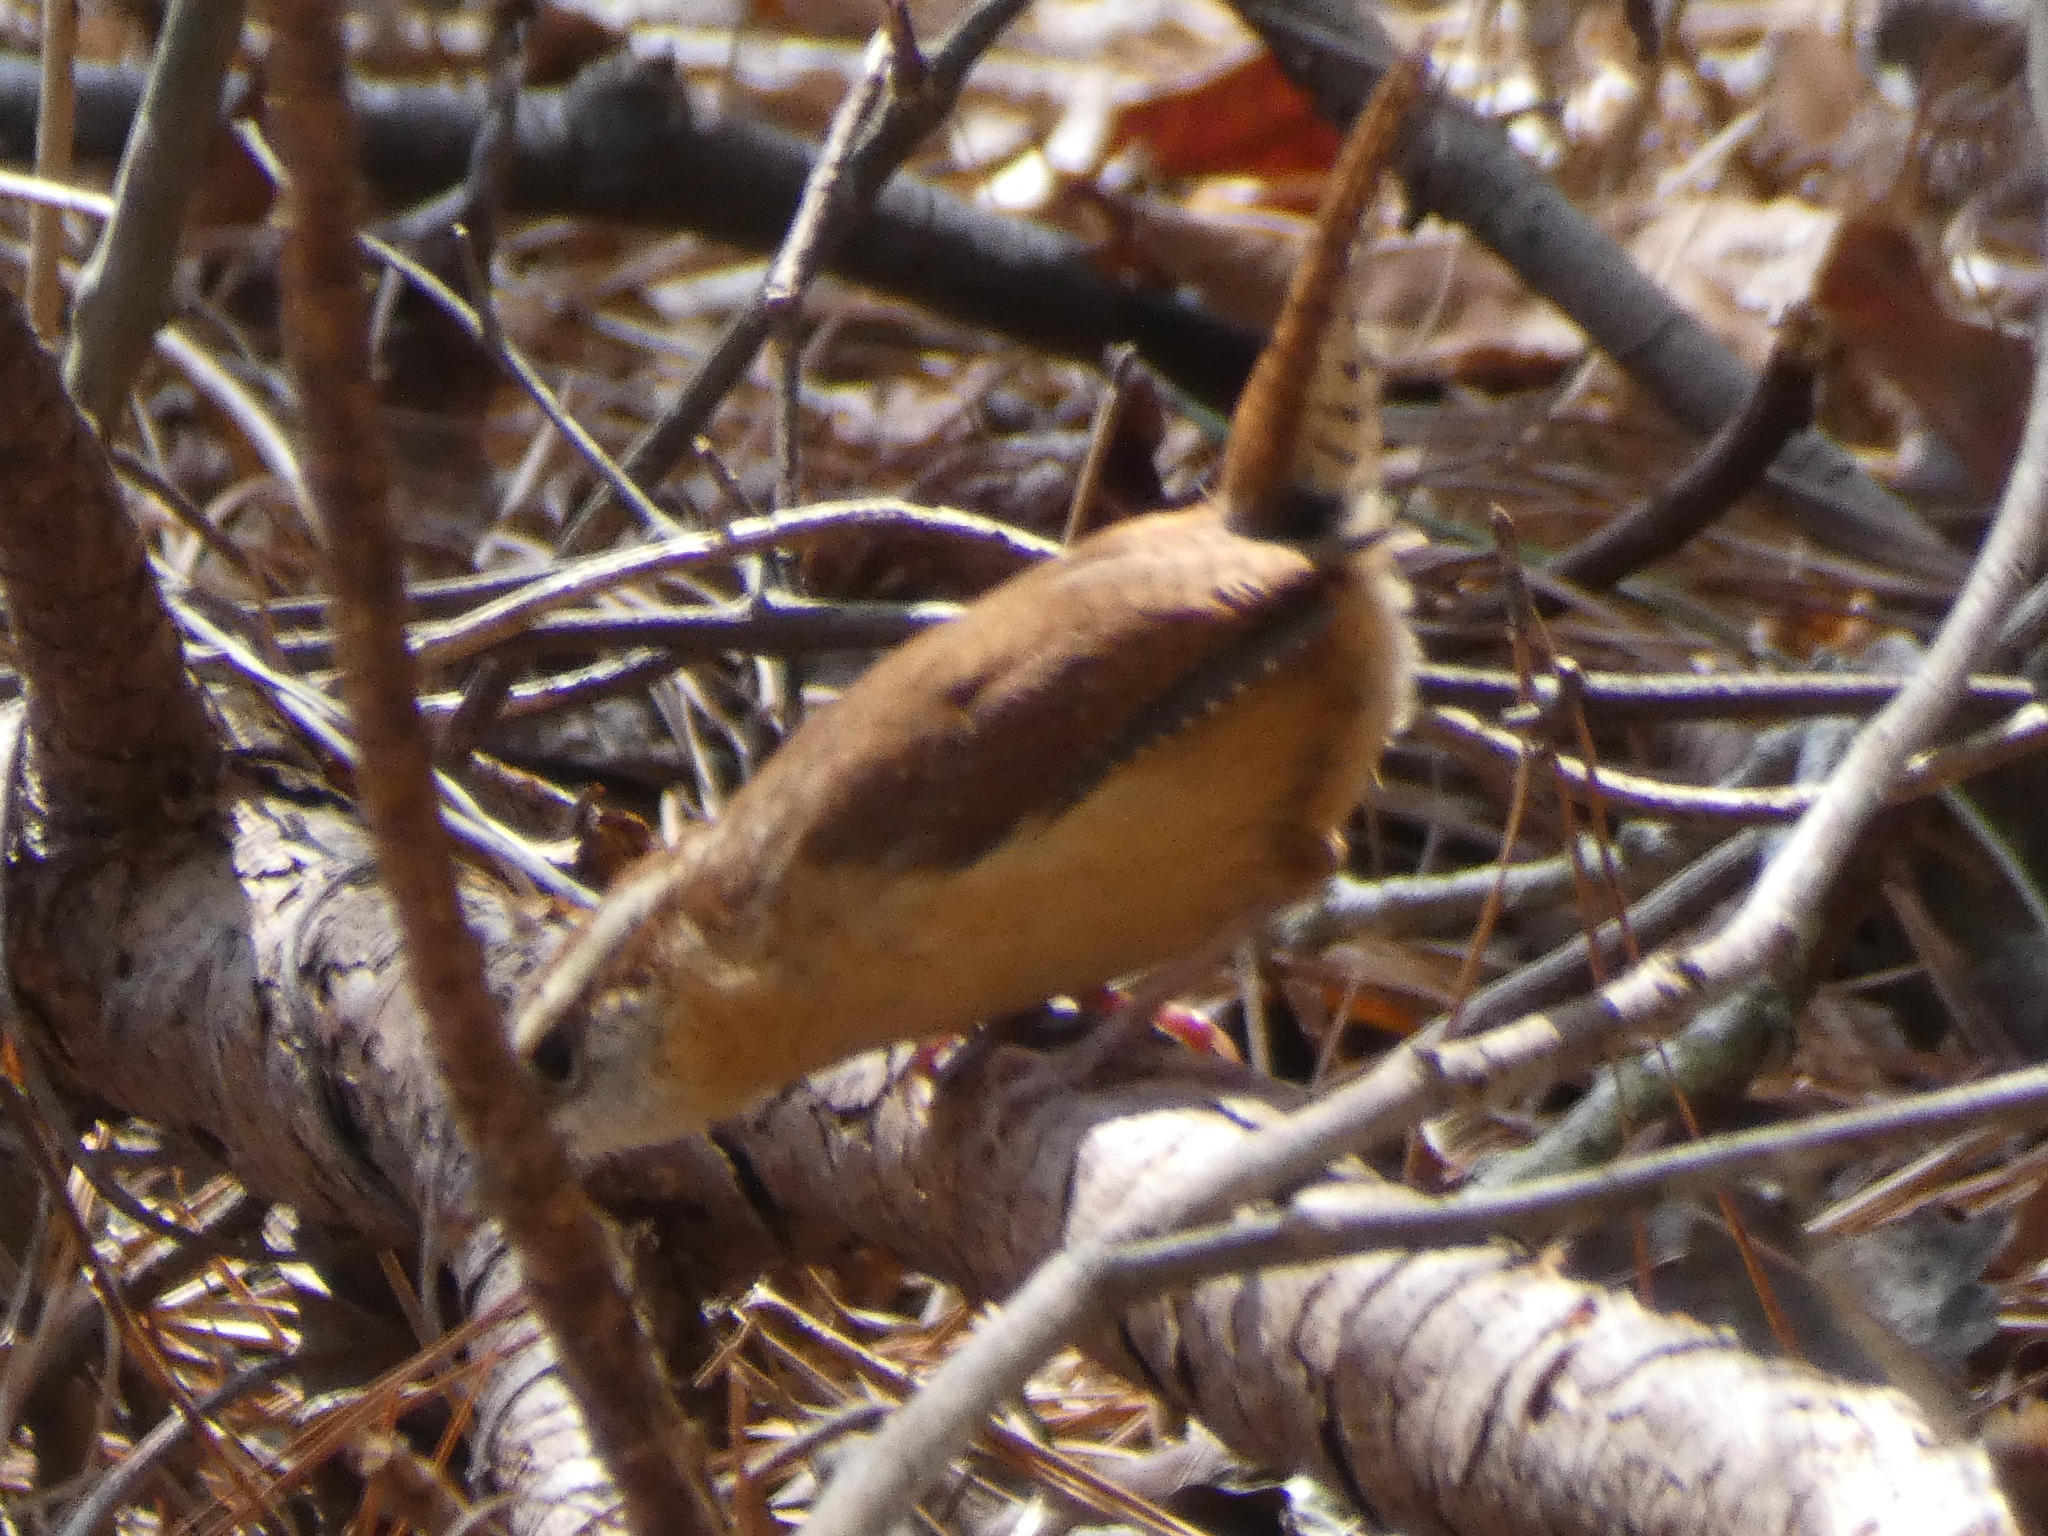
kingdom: Animalia
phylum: Chordata
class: Aves
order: Passeriformes
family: Troglodytidae
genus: Thryothorus
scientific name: Thryothorus ludovicianus
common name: Carolina wren
